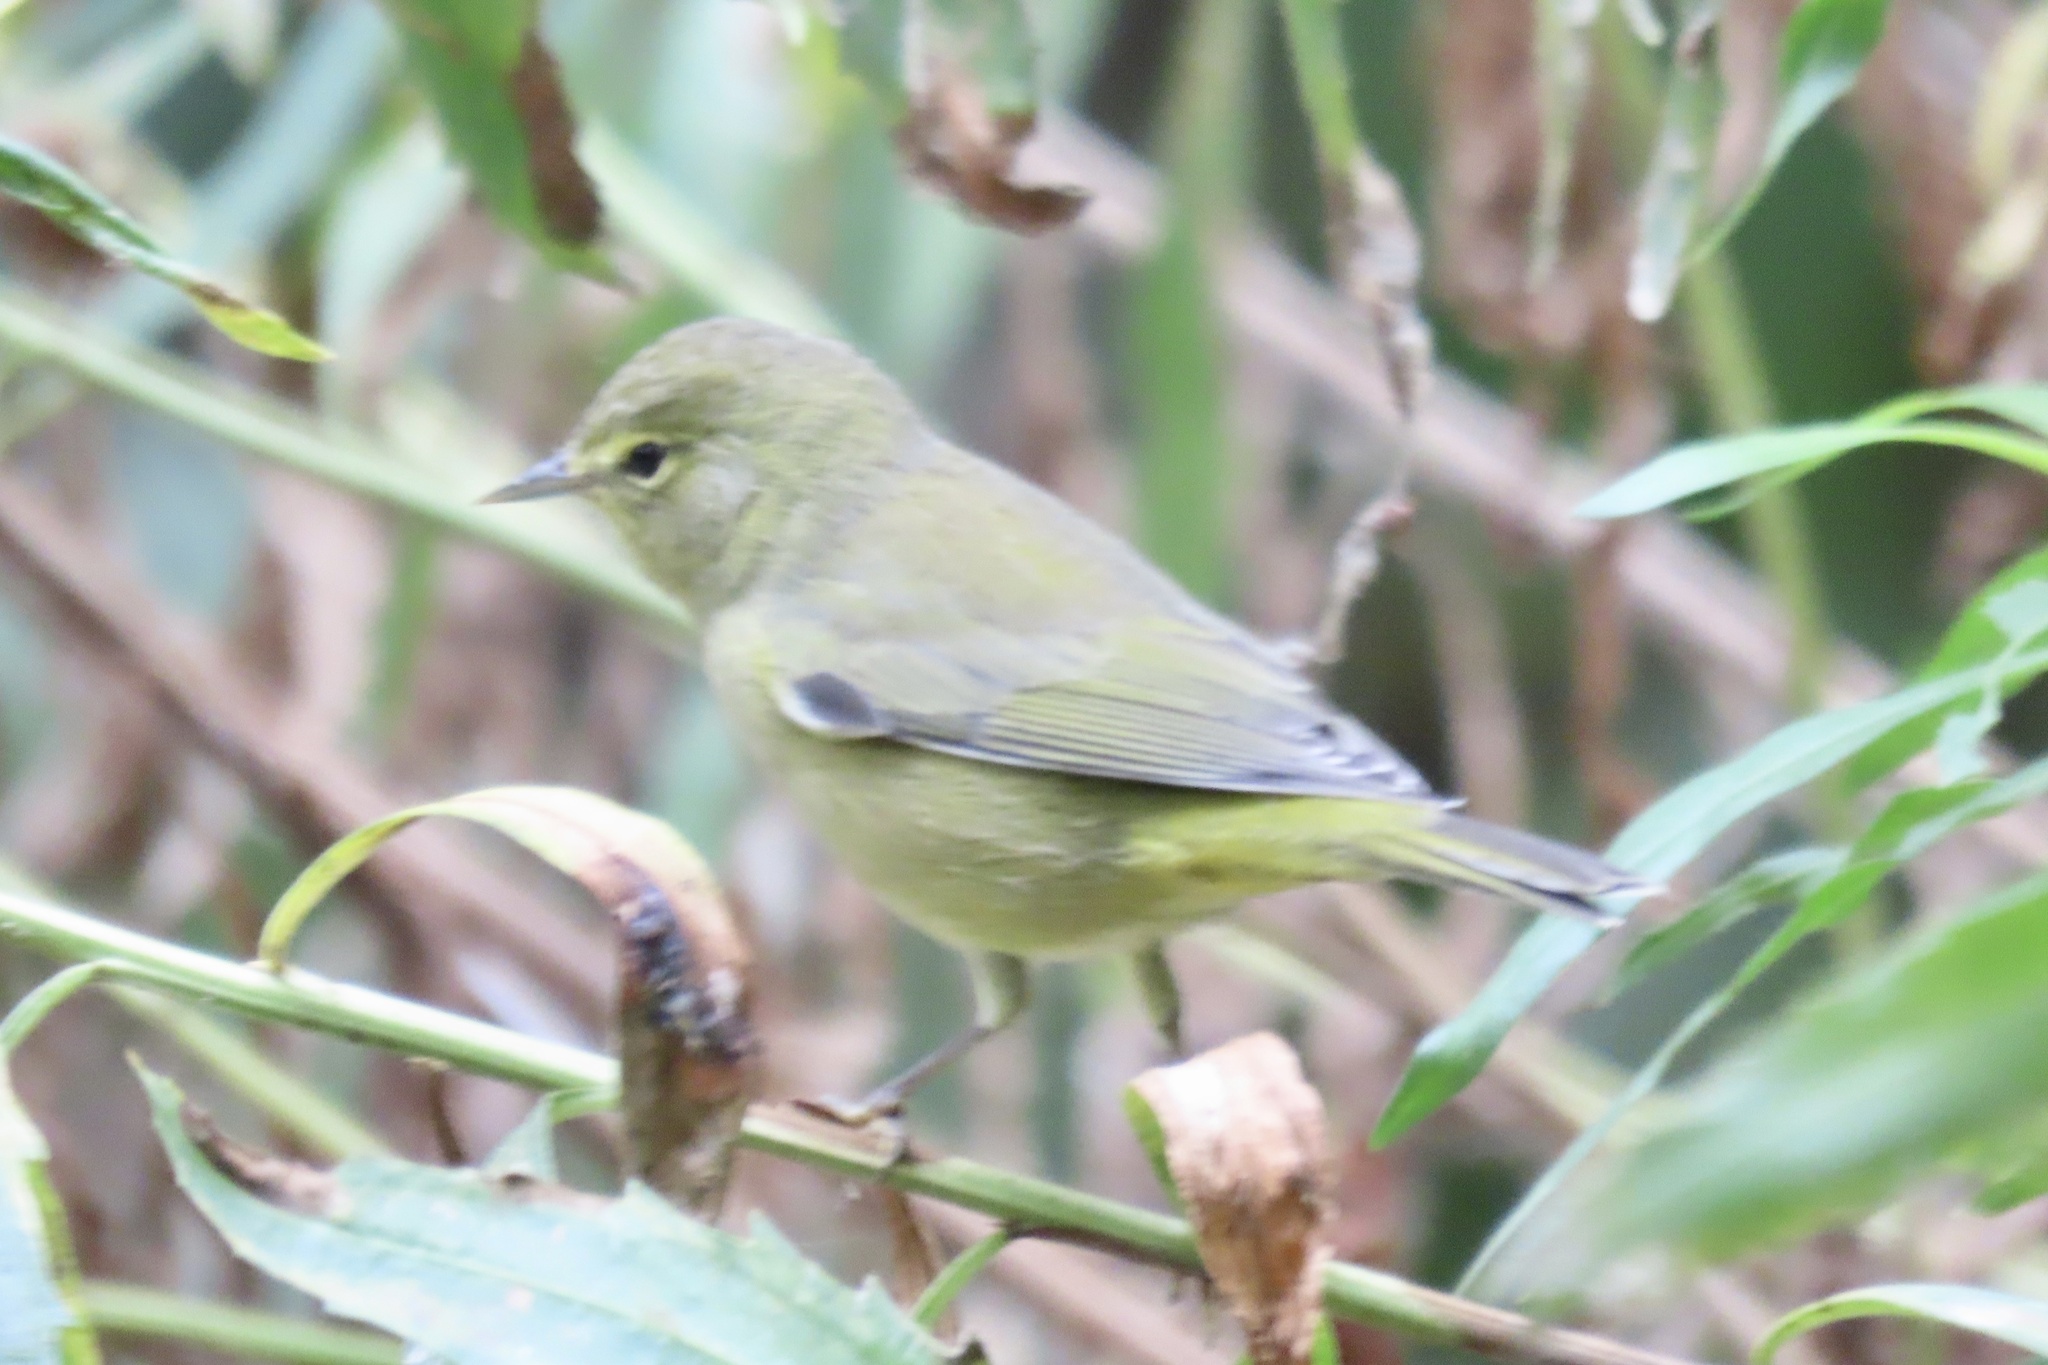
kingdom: Animalia
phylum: Chordata
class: Aves
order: Passeriformes
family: Parulidae
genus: Leiothlypis
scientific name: Leiothlypis celata
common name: Orange-crowned warbler
